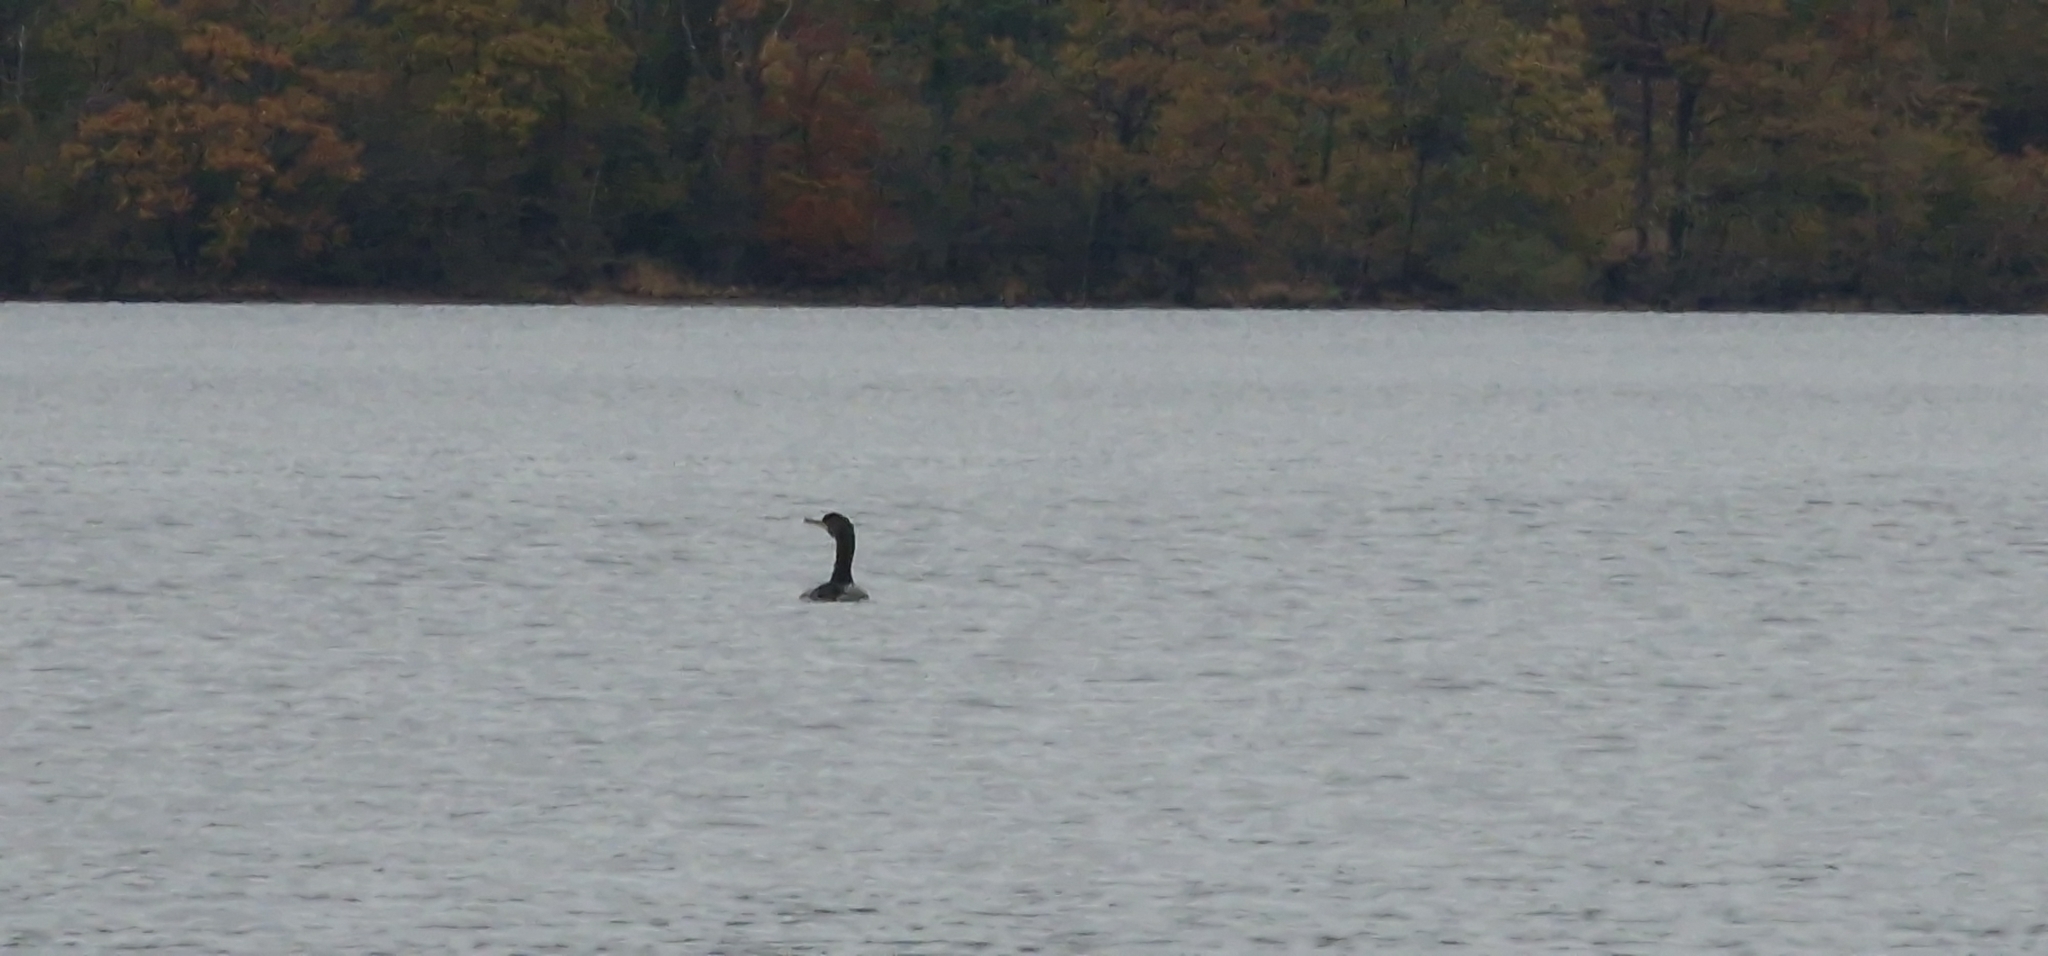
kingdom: Animalia
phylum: Chordata
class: Aves
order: Suliformes
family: Phalacrocoracidae
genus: Phalacrocorax
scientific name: Phalacrocorax carbo
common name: Great cormorant
